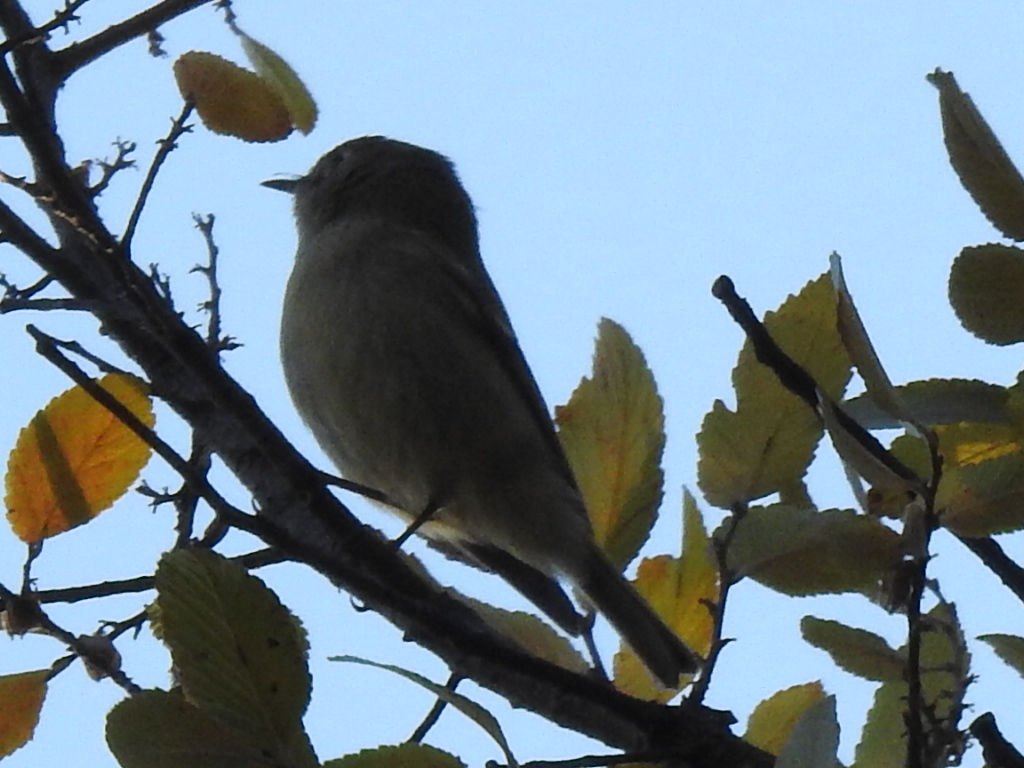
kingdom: Animalia
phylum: Chordata
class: Aves
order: Passeriformes
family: Regulidae
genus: Regulus
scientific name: Regulus calendula
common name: Ruby-crowned kinglet
